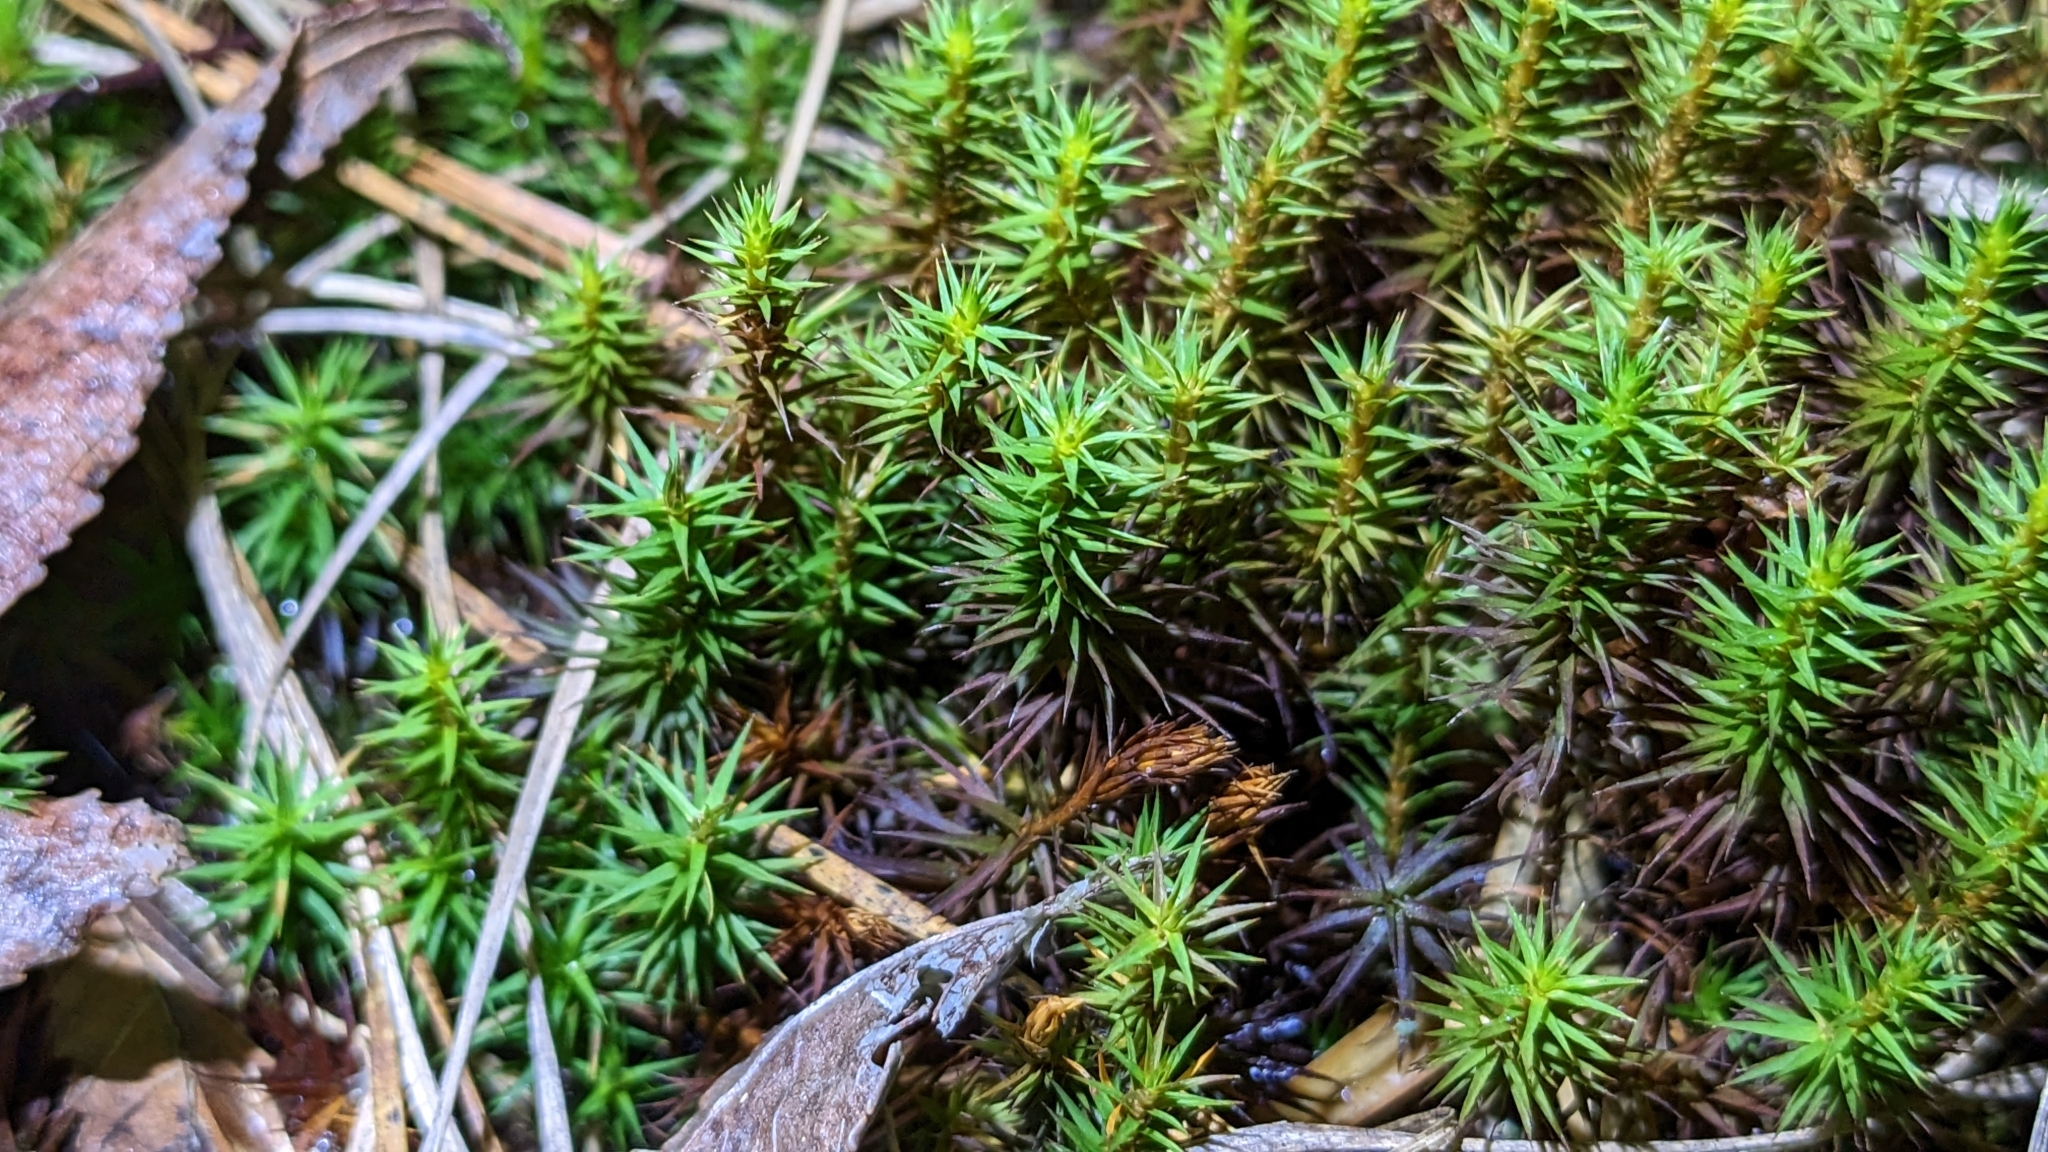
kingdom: Plantae
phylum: Bryophyta
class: Polytrichopsida
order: Polytrichales
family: Polytrichaceae
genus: Polytrichum
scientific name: Polytrichum commune
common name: Common haircap
